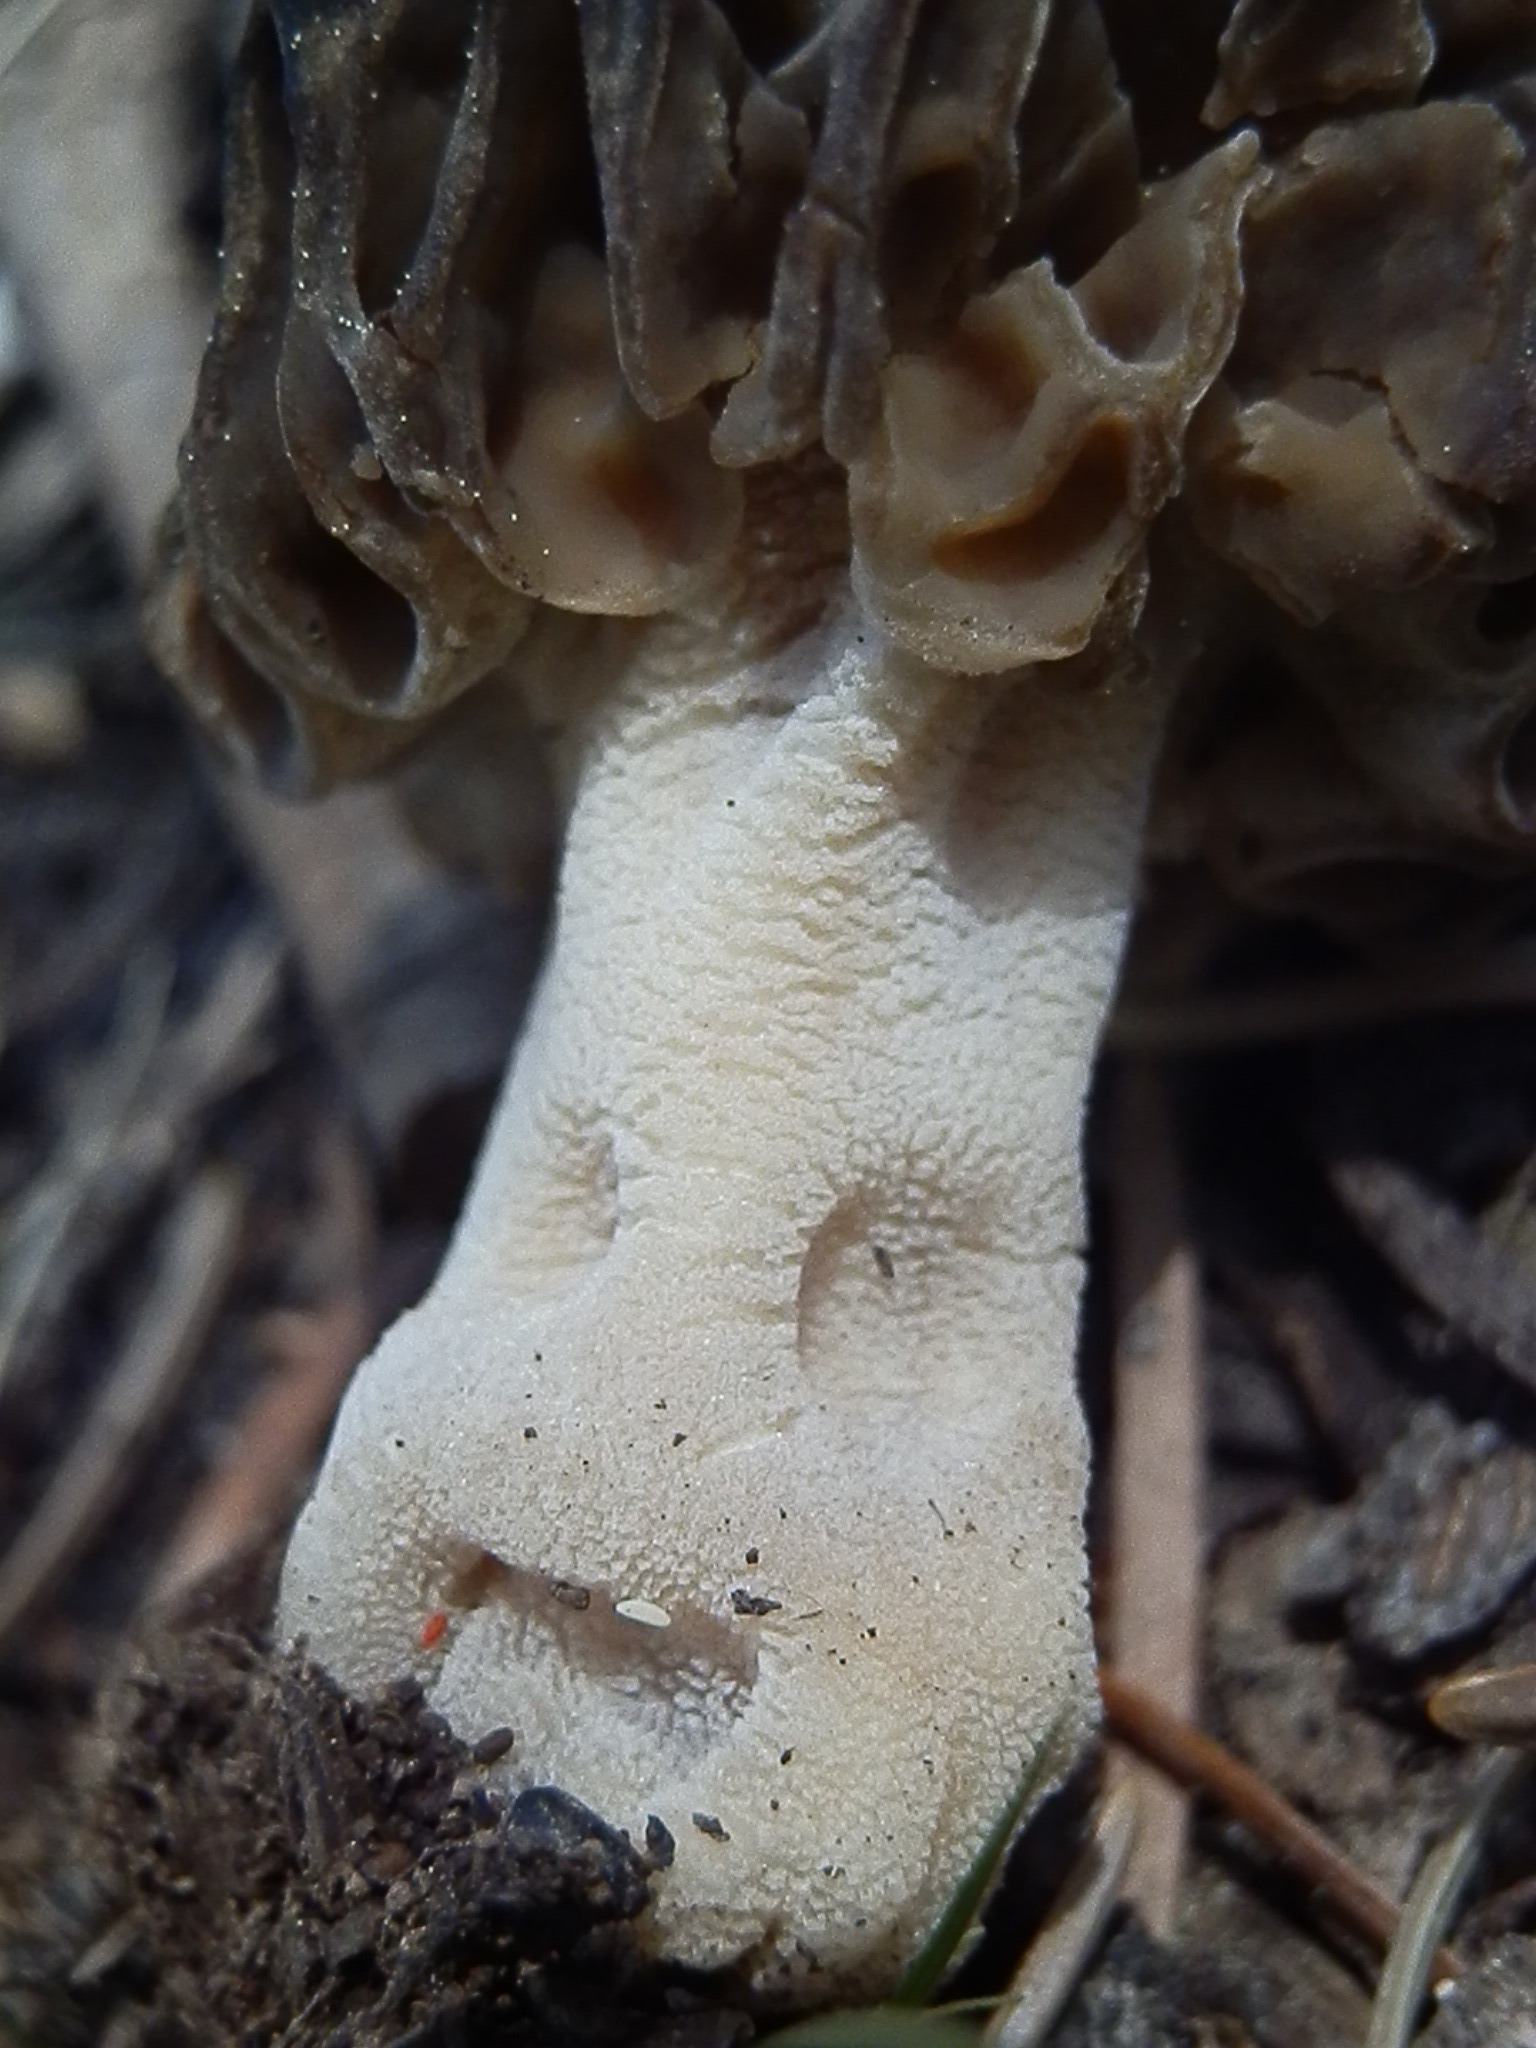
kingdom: Fungi
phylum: Ascomycota
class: Pezizomycetes
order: Pezizales
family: Morchellaceae
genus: Morchella
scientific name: Morchella snyderi
